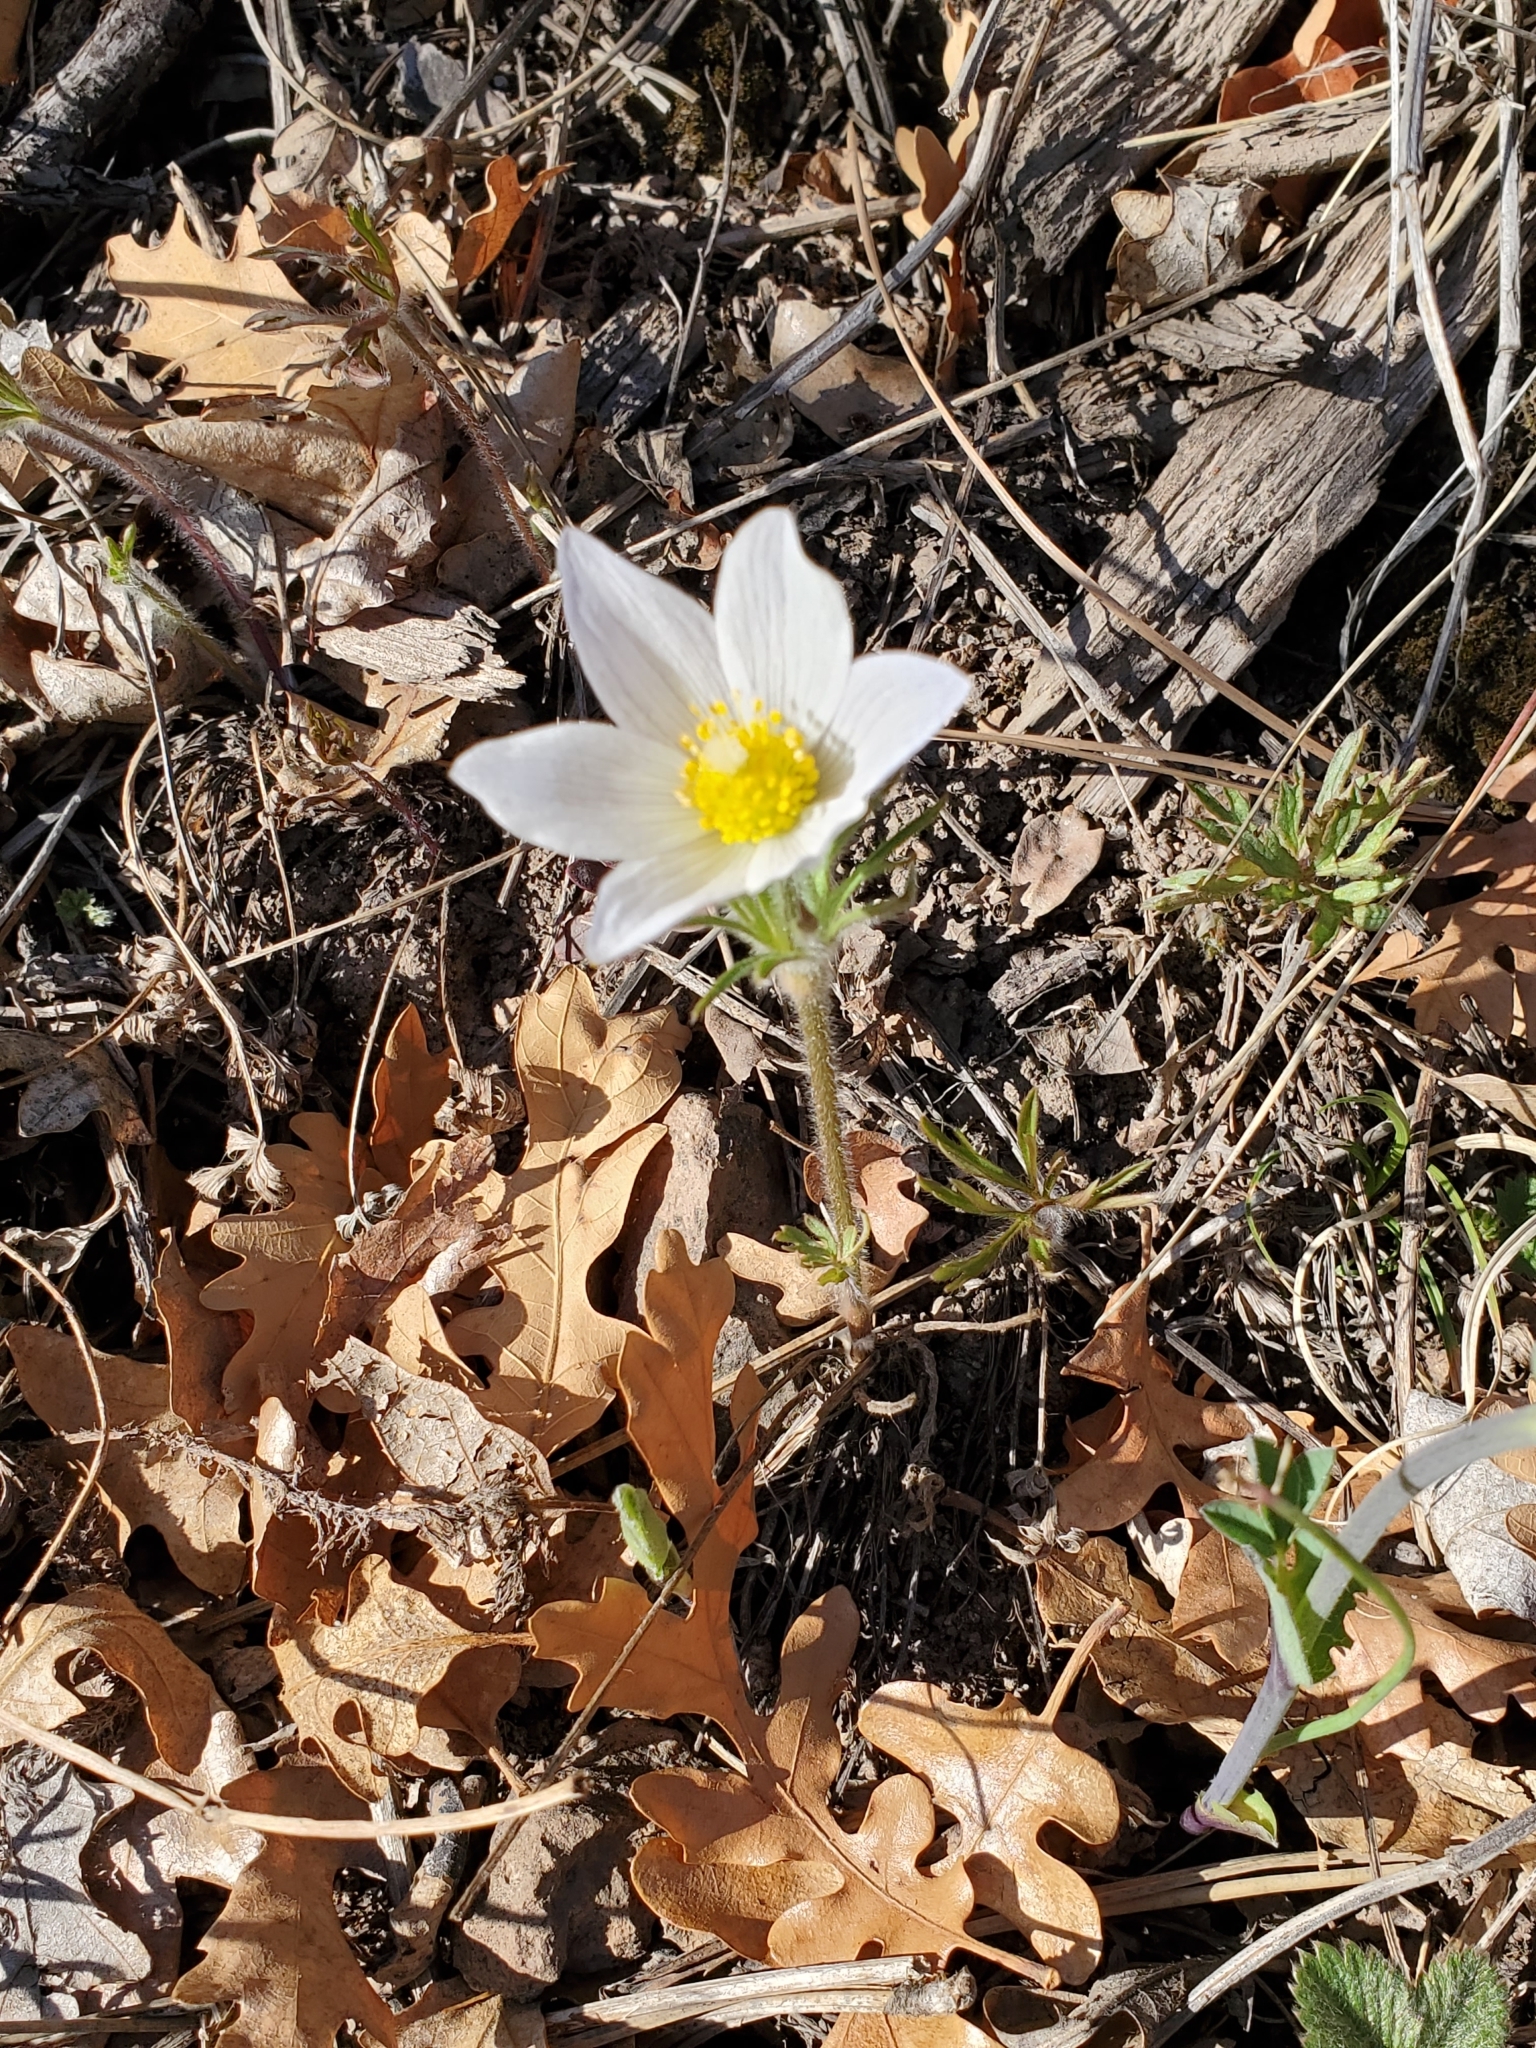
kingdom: Plantae
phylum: Tracheophyta
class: Magnoliopsida
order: Ranunculales
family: Ranunculaceae
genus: Pulsatilla
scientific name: Pulsatilla nuttalliana
